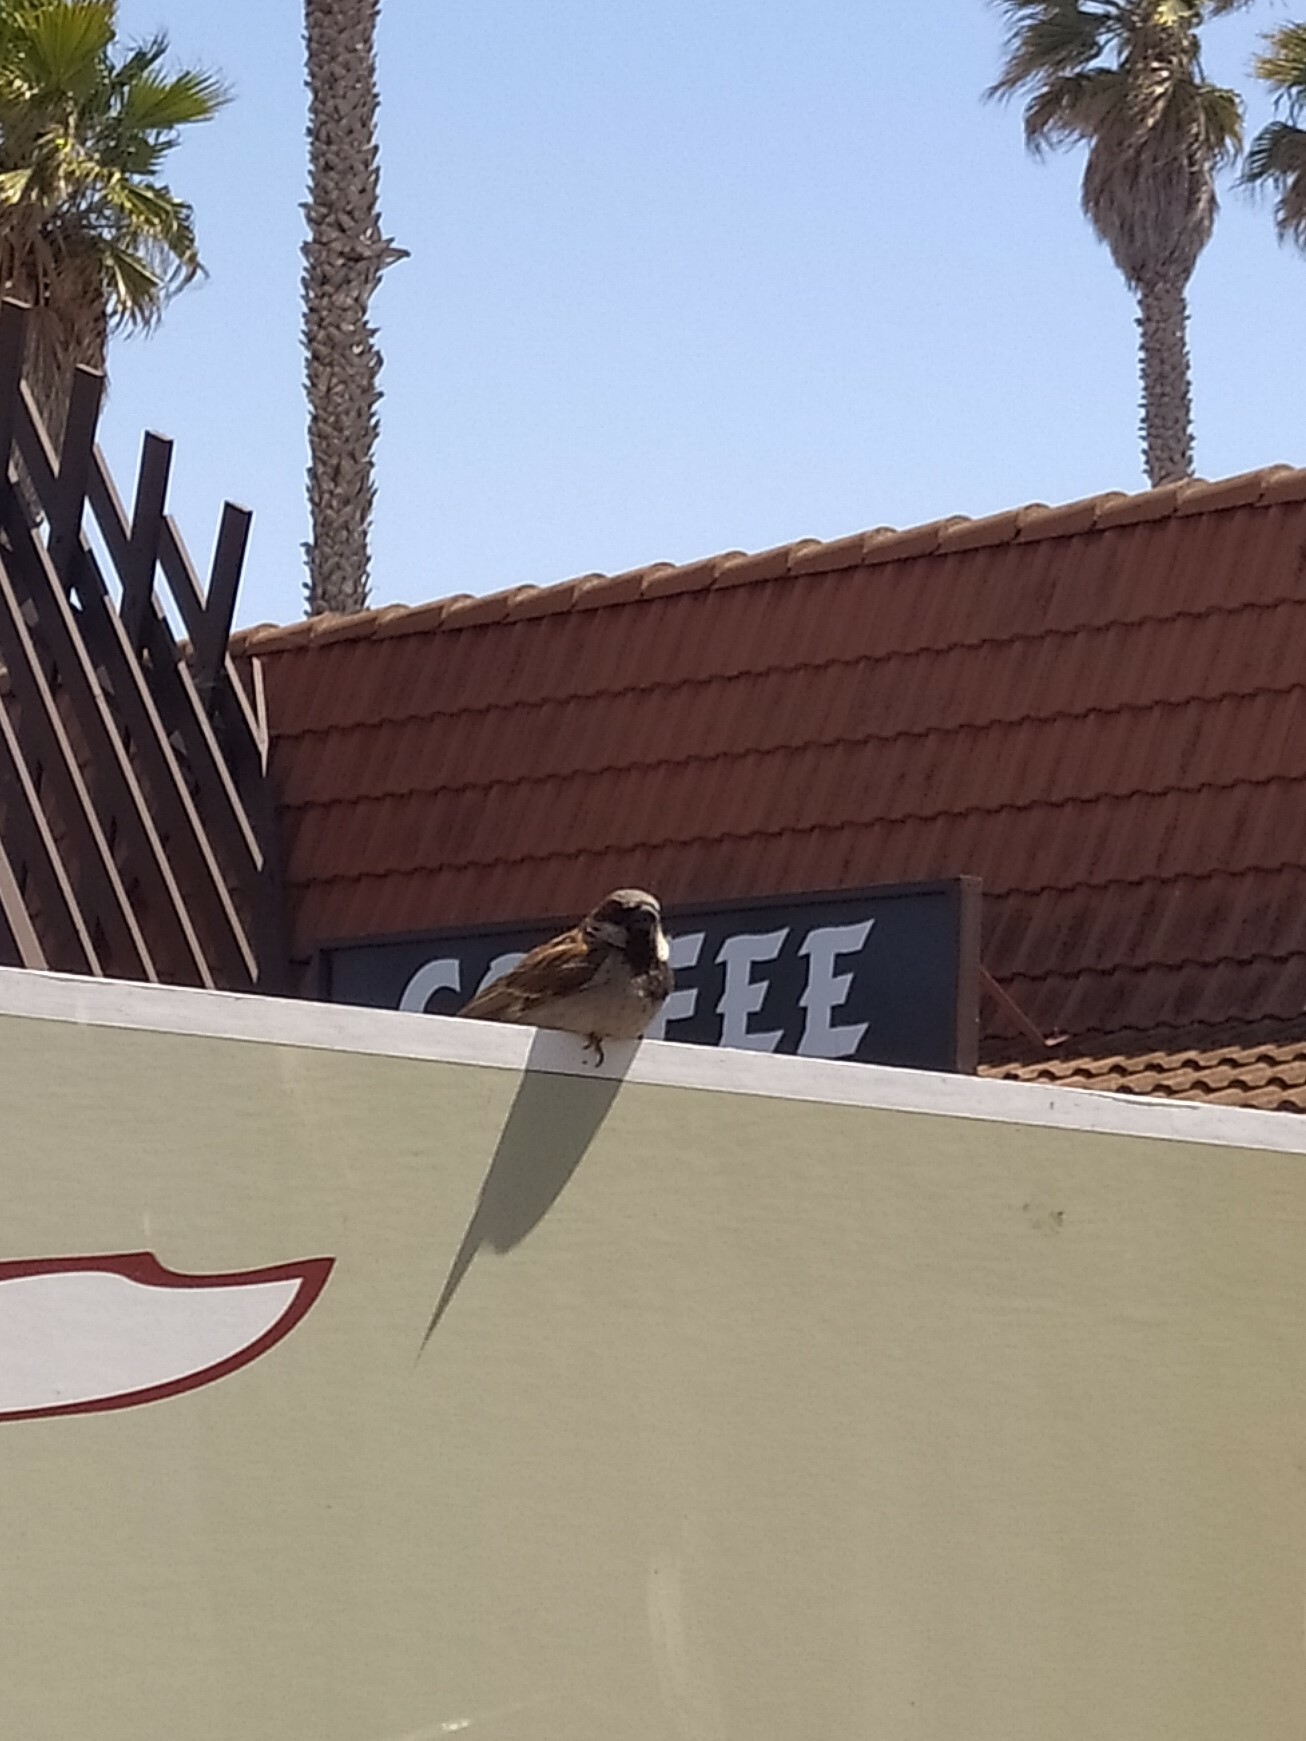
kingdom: Animalia
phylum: Chordata
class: Aves
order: Passeriformes
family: Passeridae
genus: Passer
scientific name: Passer domesticus
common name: House sparrow
